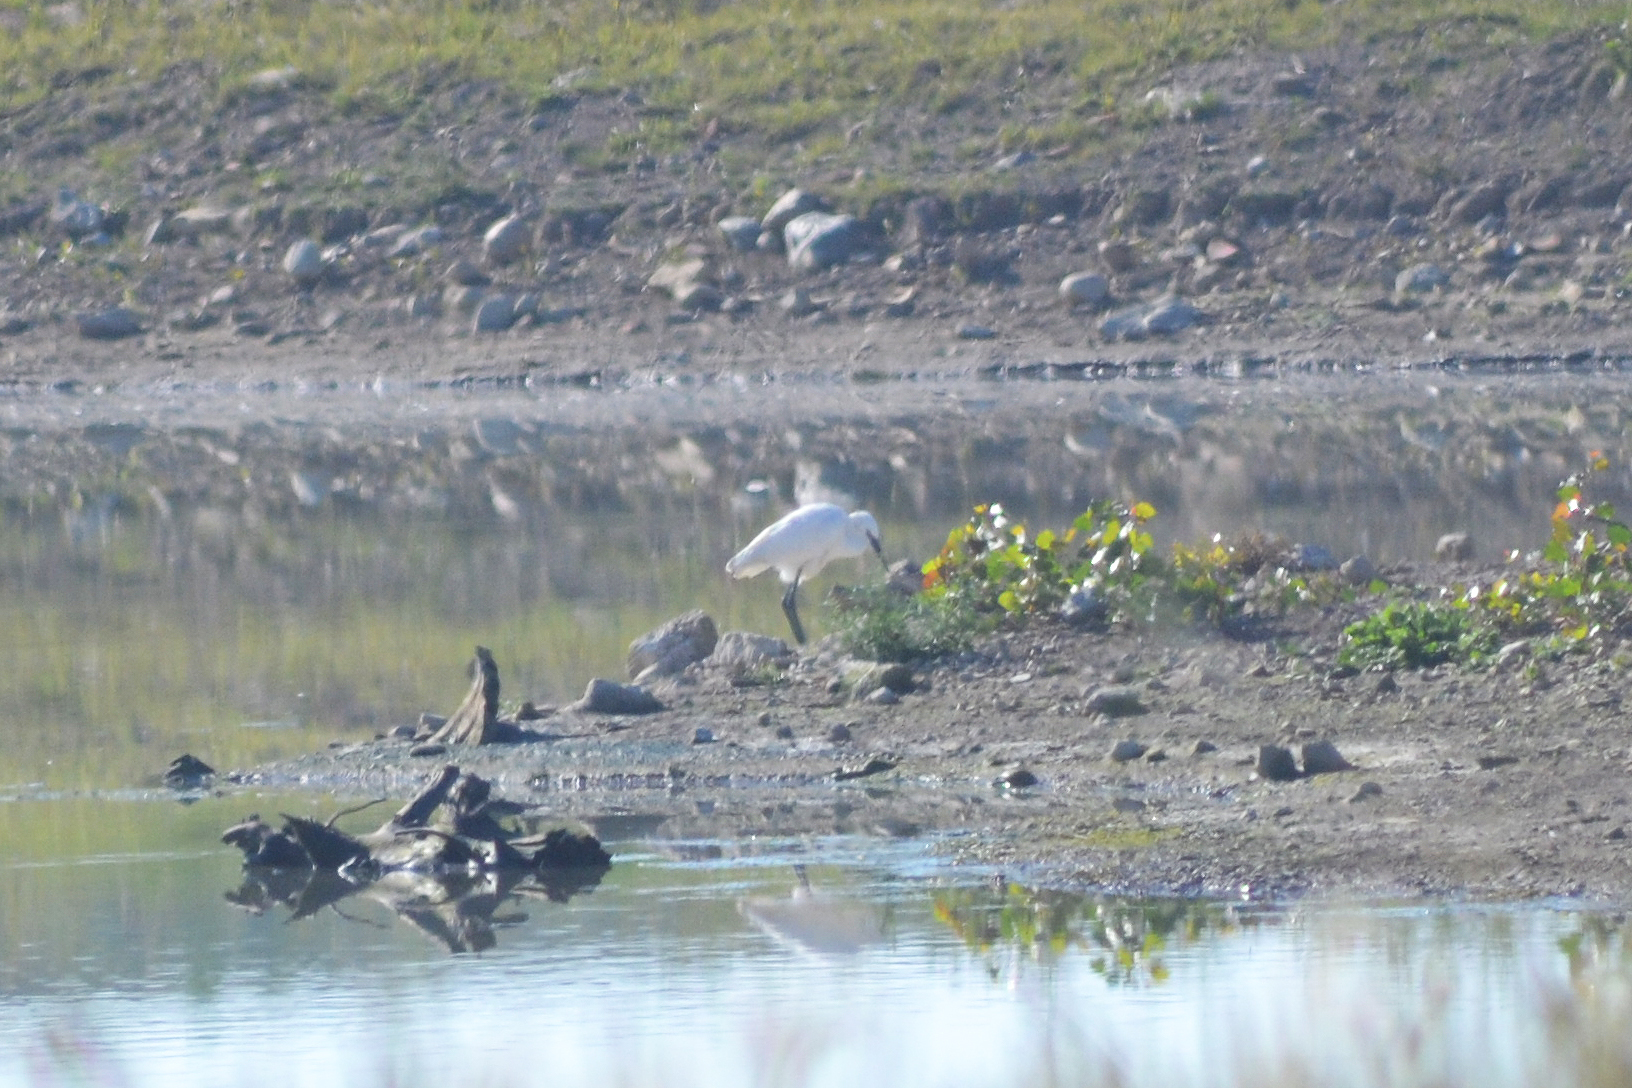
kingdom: Animalia
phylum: Chordata
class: Aves
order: Pelecaniformes
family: Ardeidae
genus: Egretta
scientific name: Egretta rufescens
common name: Reddish egret
